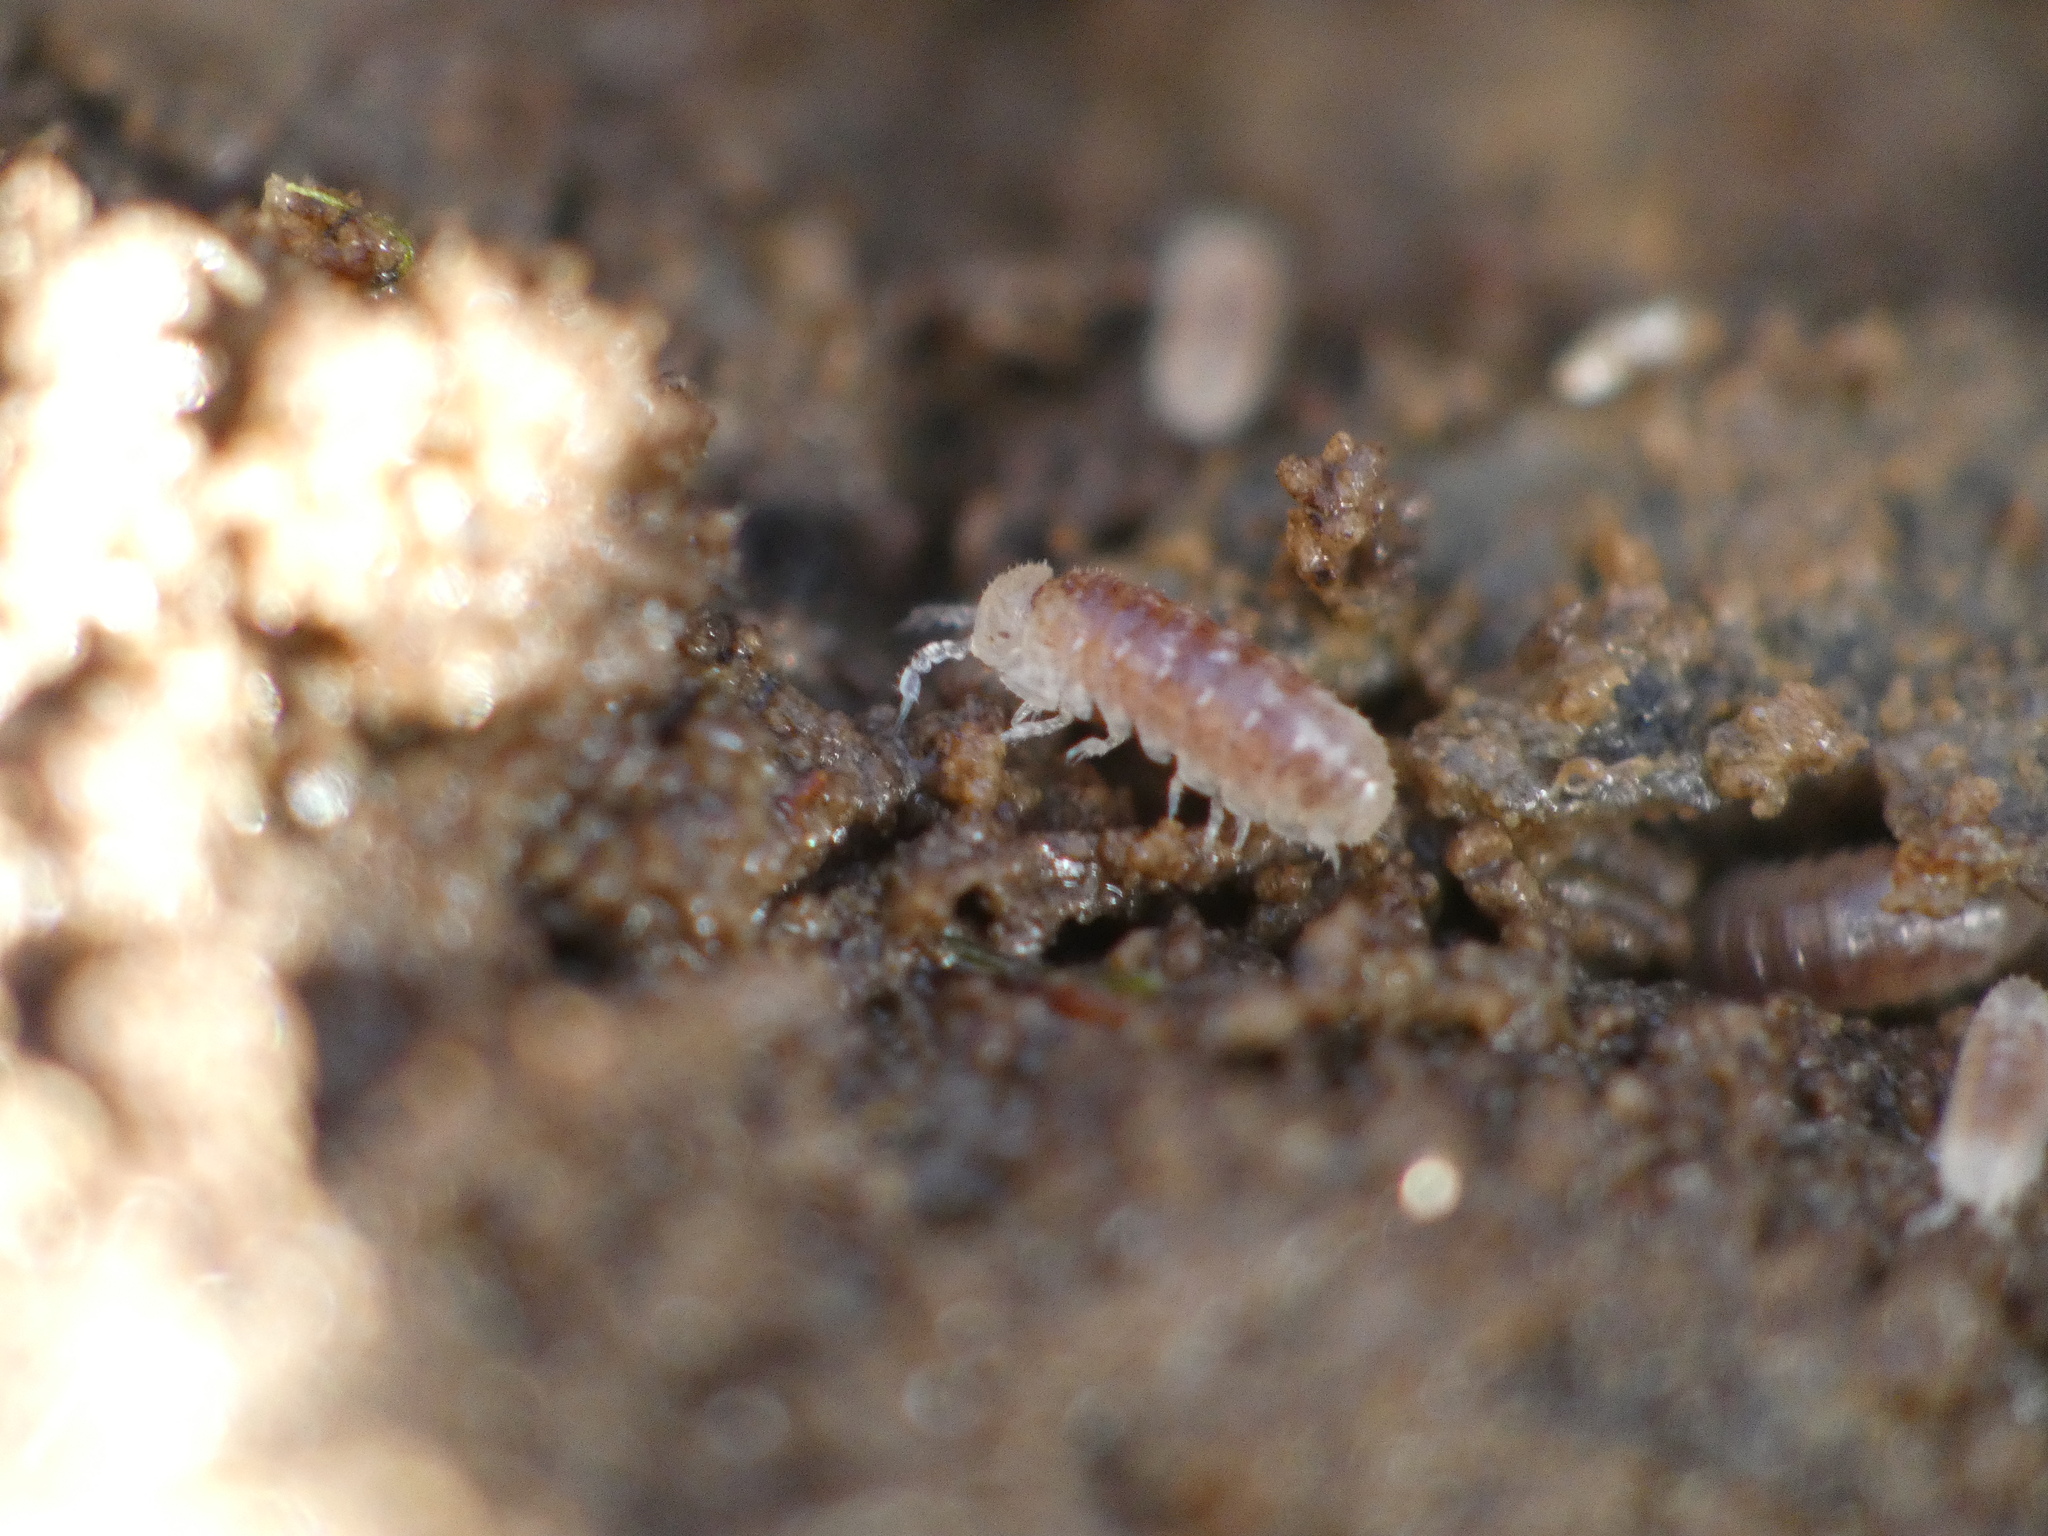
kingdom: Animalia
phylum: Arthropoda
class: Malacostraca
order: Isopoda
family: Trichoniscidae
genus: Buchnerillo
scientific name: Buchnerillo atlanticus
